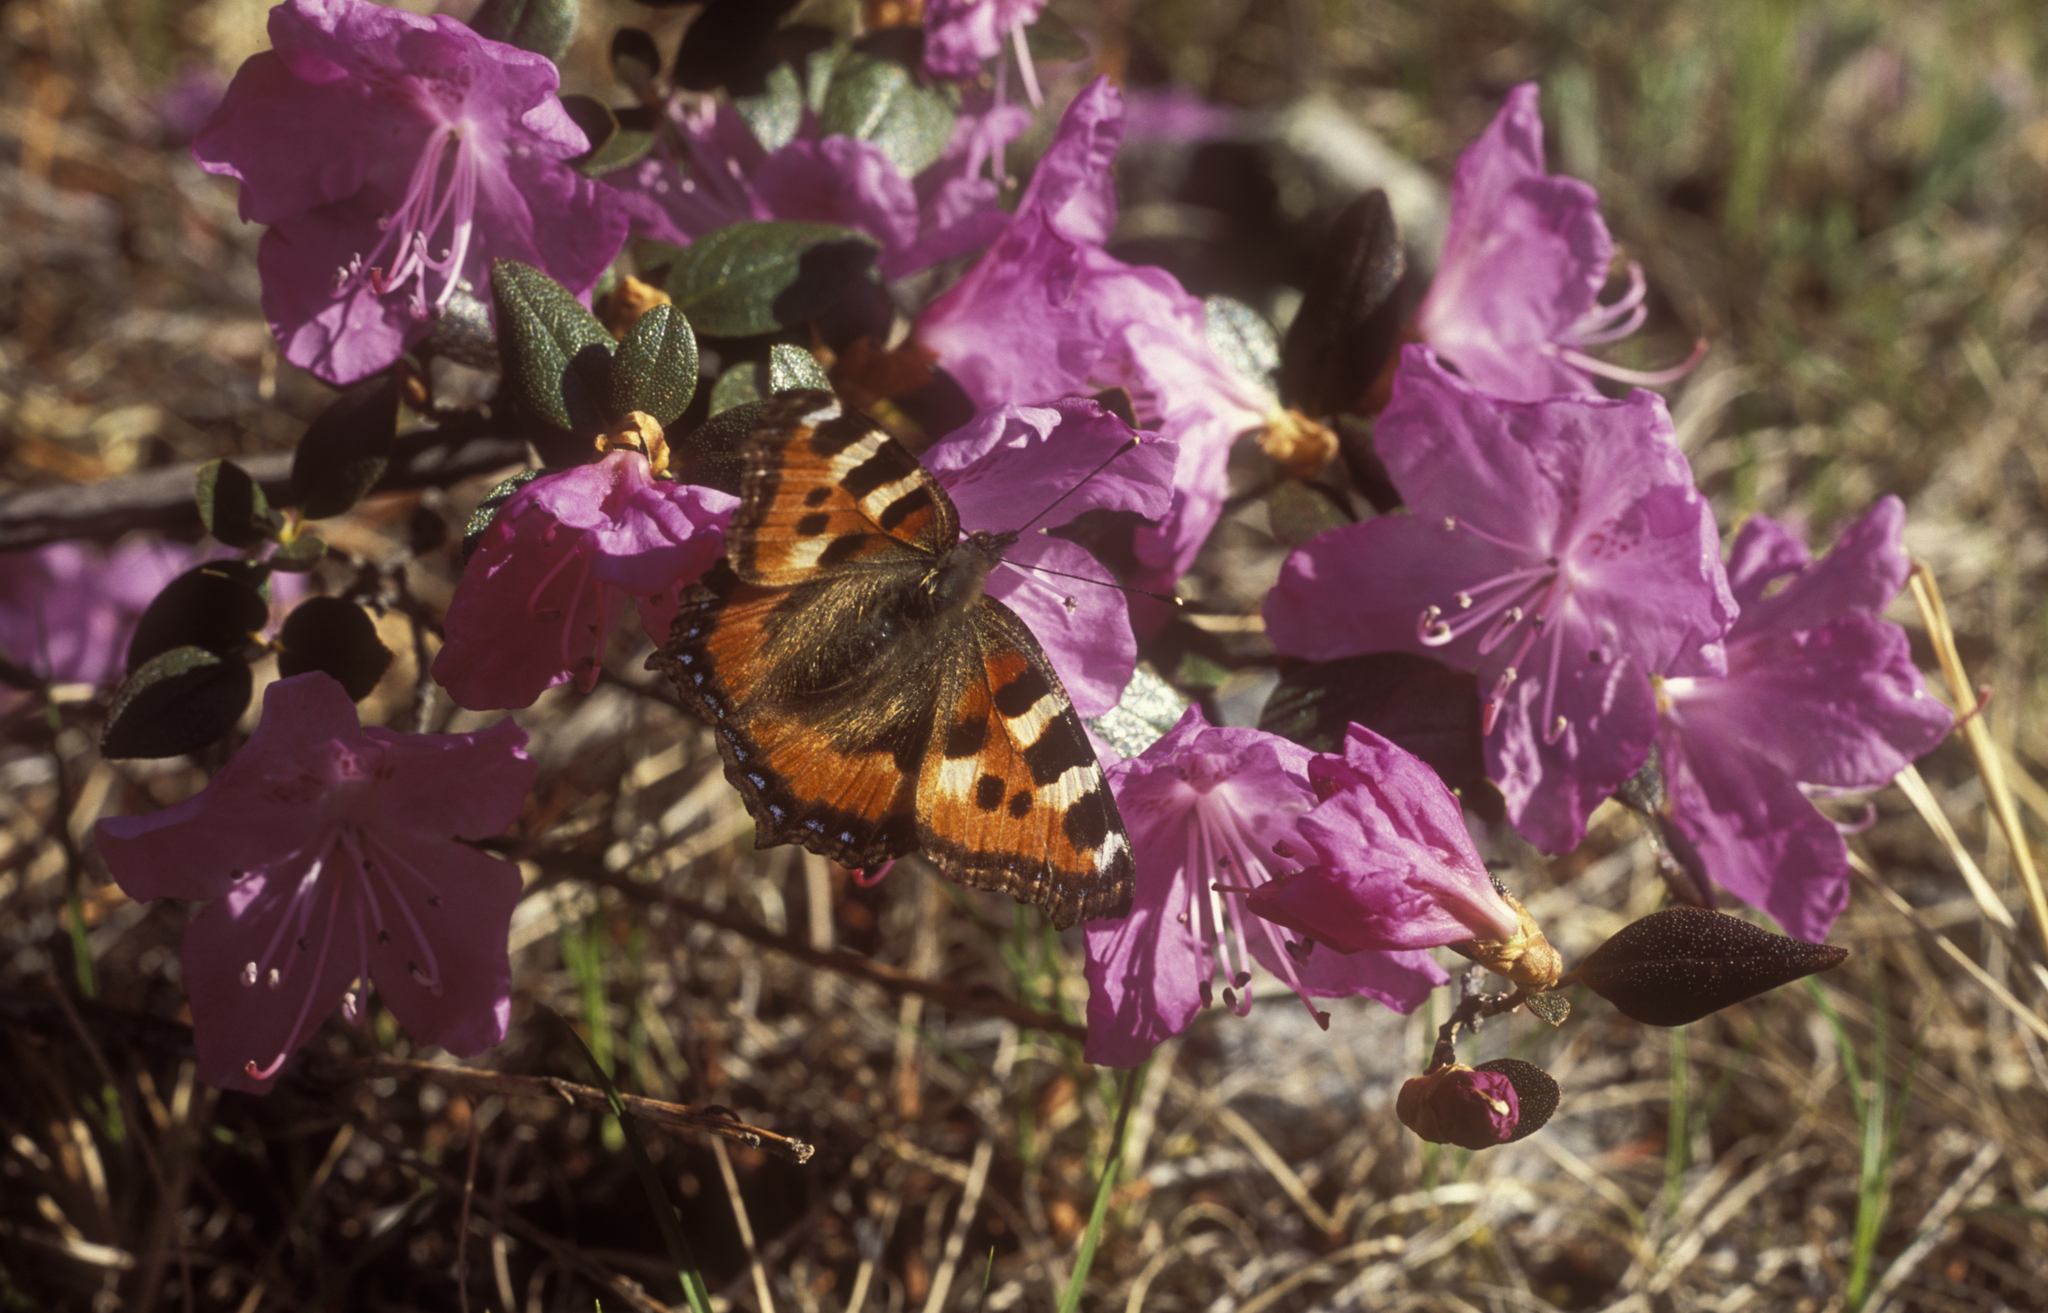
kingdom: Animalia
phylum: Arthropoda
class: Insecta
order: Lepidoptera
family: Nymphalidae
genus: Aglais
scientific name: Aglais urticae
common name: Small tortoiseshell
